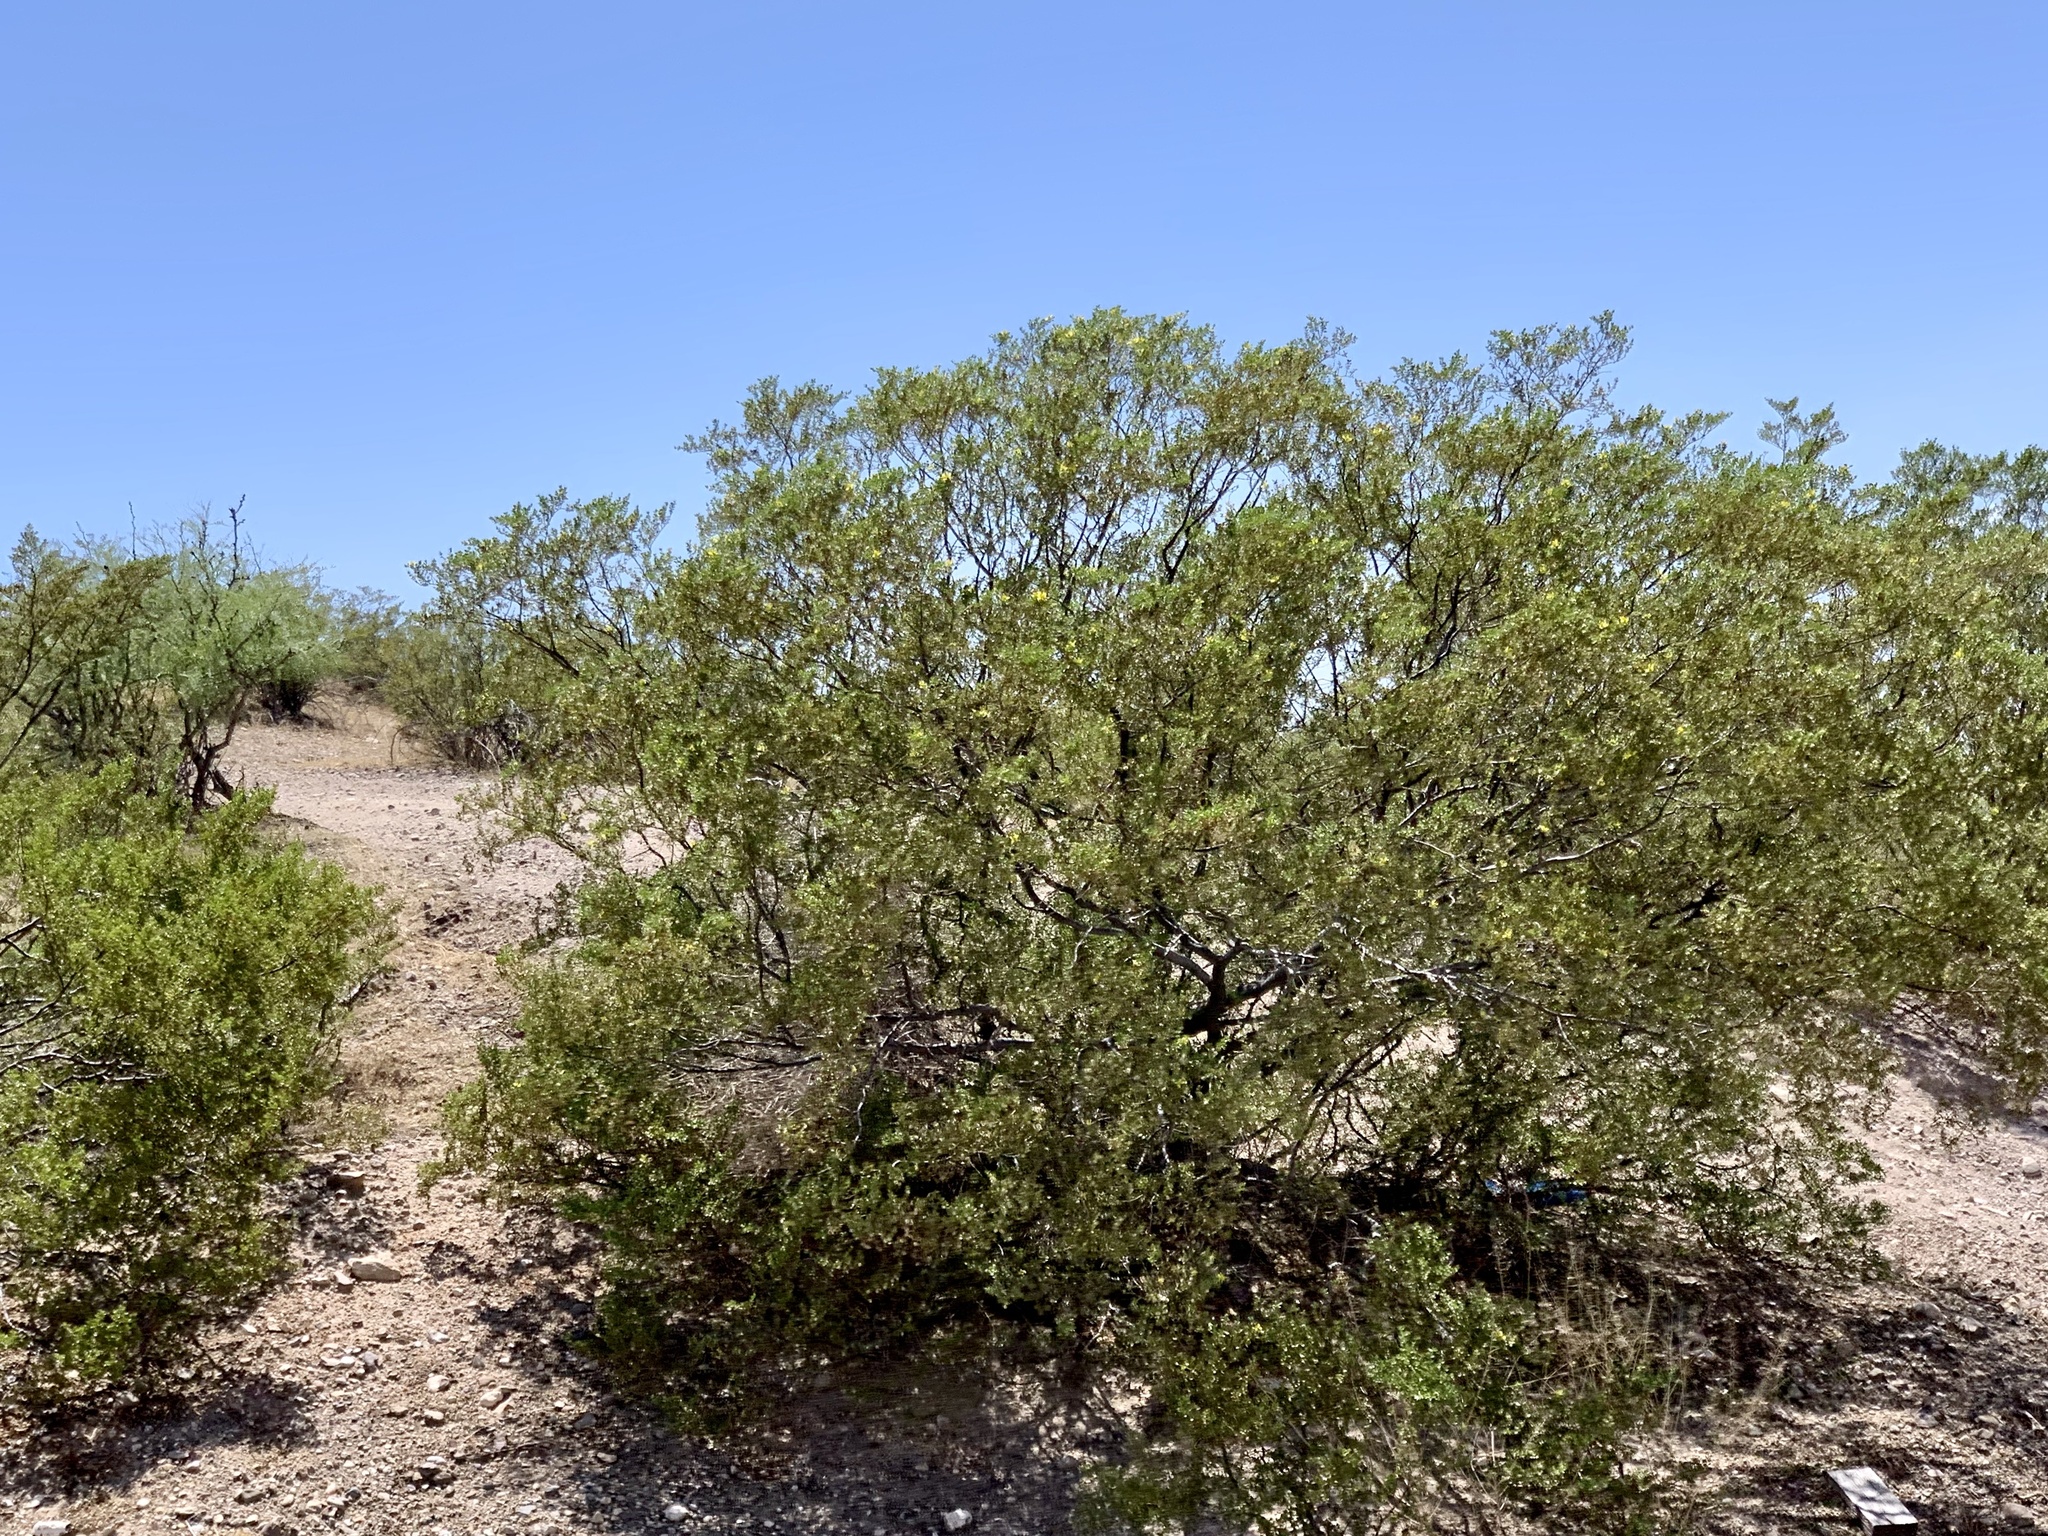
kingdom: Plantae
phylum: Tracheophyta
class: Magnoliopsida
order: Zygophyllales
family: Zygophyllaceae
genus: Larrea
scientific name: Larrea tridentata
